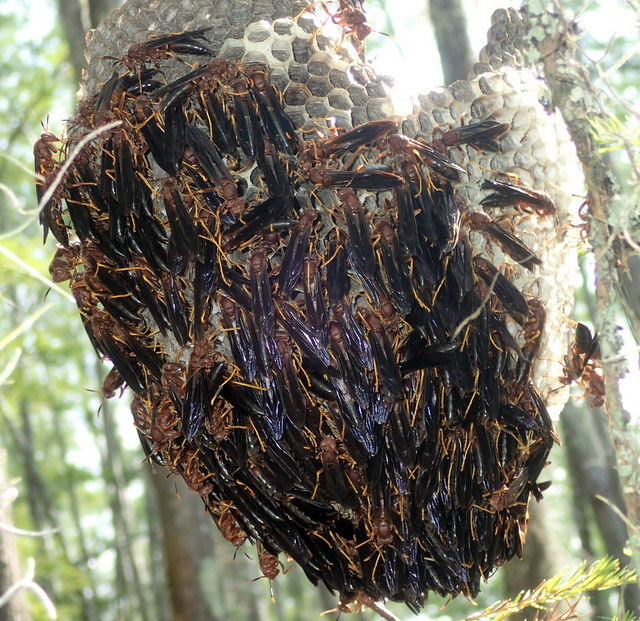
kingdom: Animalia
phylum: Arthropoda
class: Insecta
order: Hymenoptera
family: Eumenidae
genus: Polistes
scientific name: Polistes annularis
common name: Ringed paper wasp
